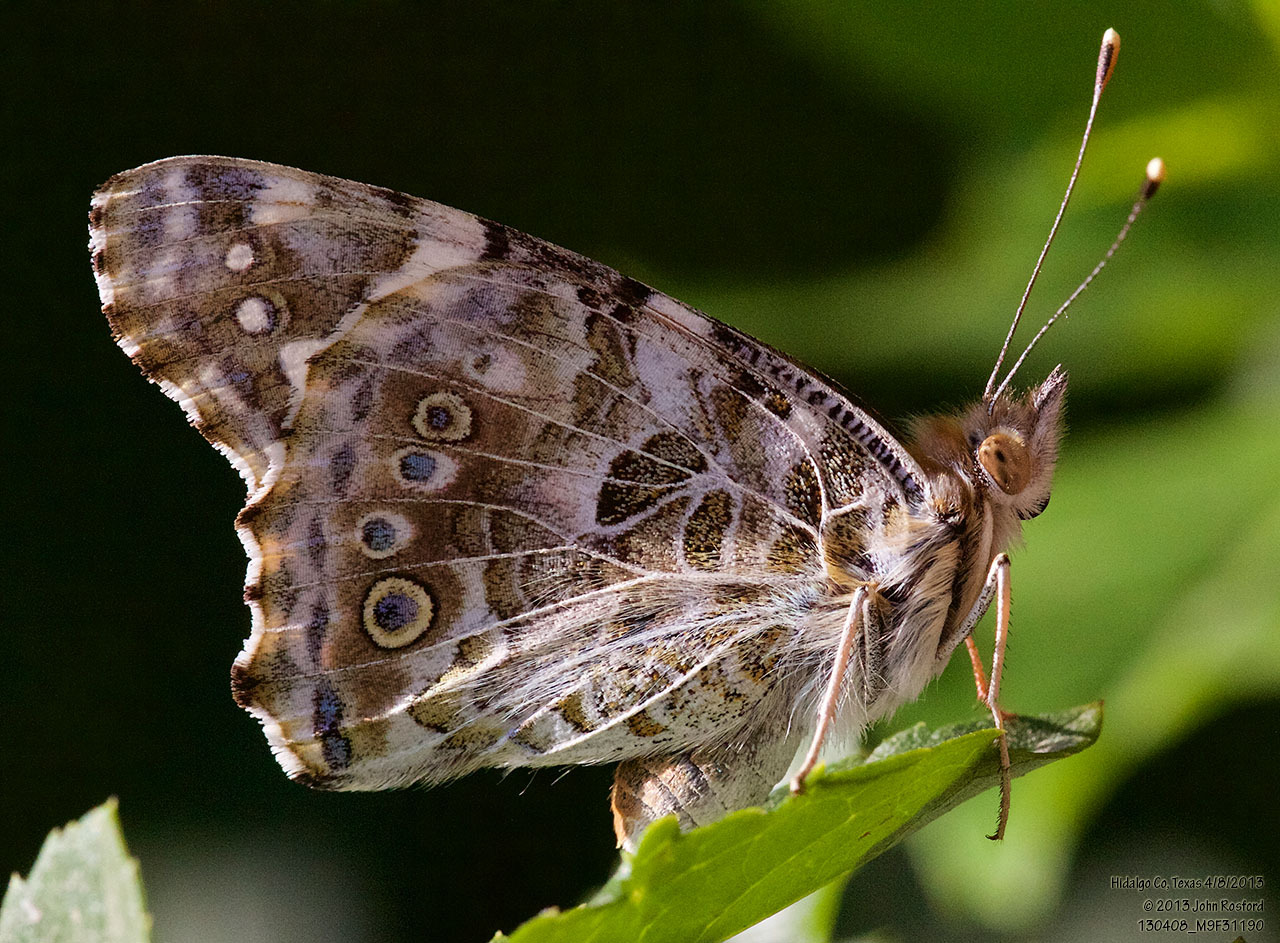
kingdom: Animalia
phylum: Arthropoda
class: Insecta
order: Lepidoptera
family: Nymphalidae
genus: Vanessa
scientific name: Vanessa cardui
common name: Painted lady
